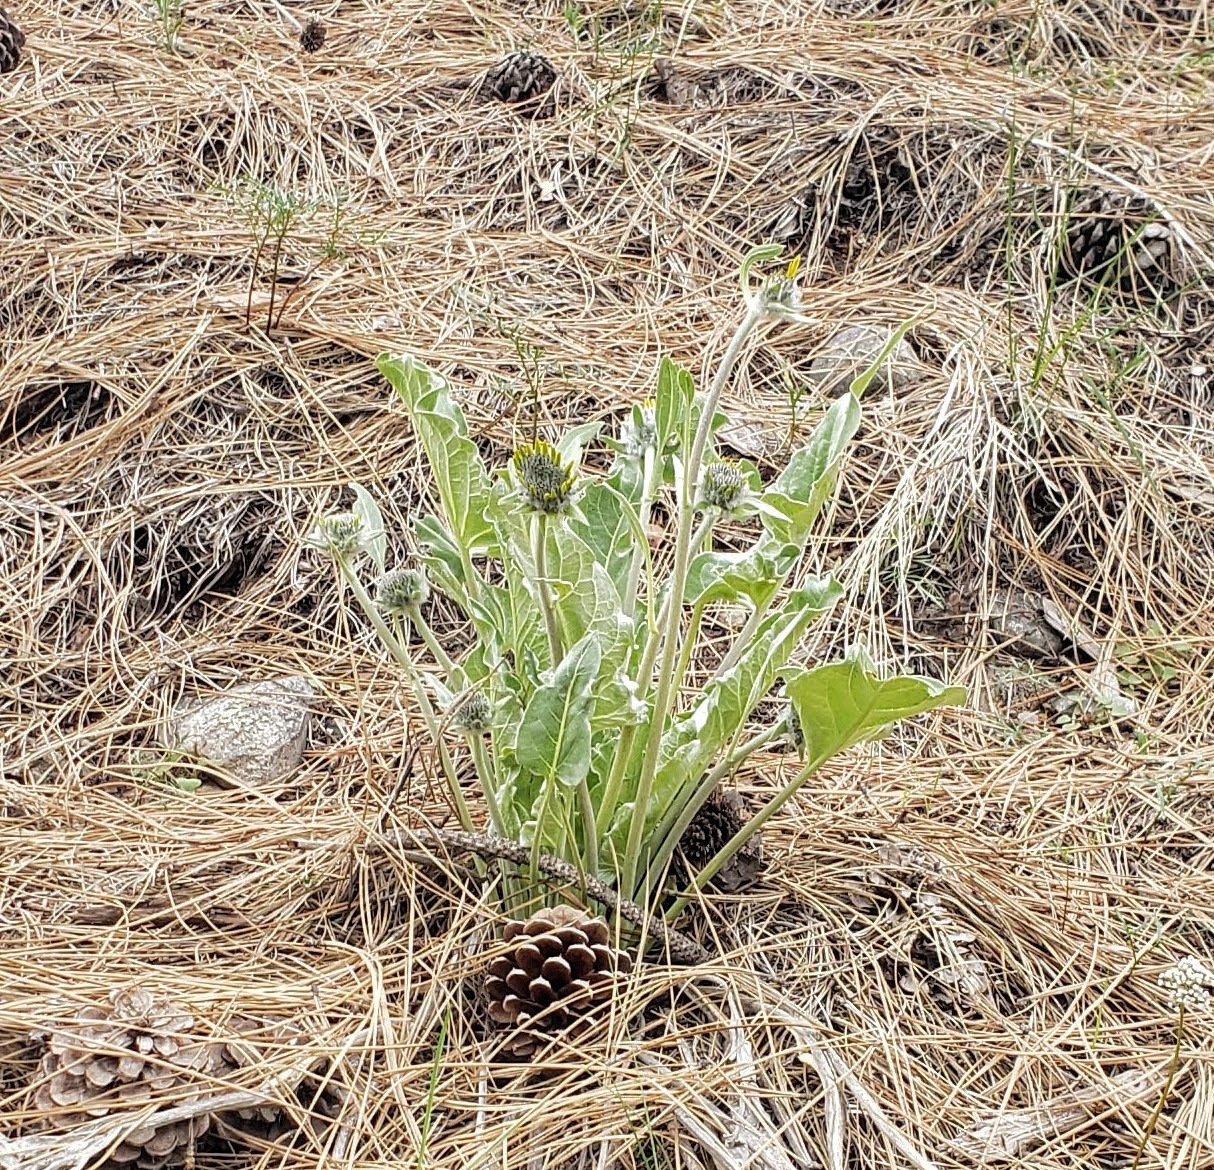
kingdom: Plantae
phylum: Tracheophyta
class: Magnoliopsida
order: Asterales
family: Asteraceae
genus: Wyethia
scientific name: Wyethia sagittata
